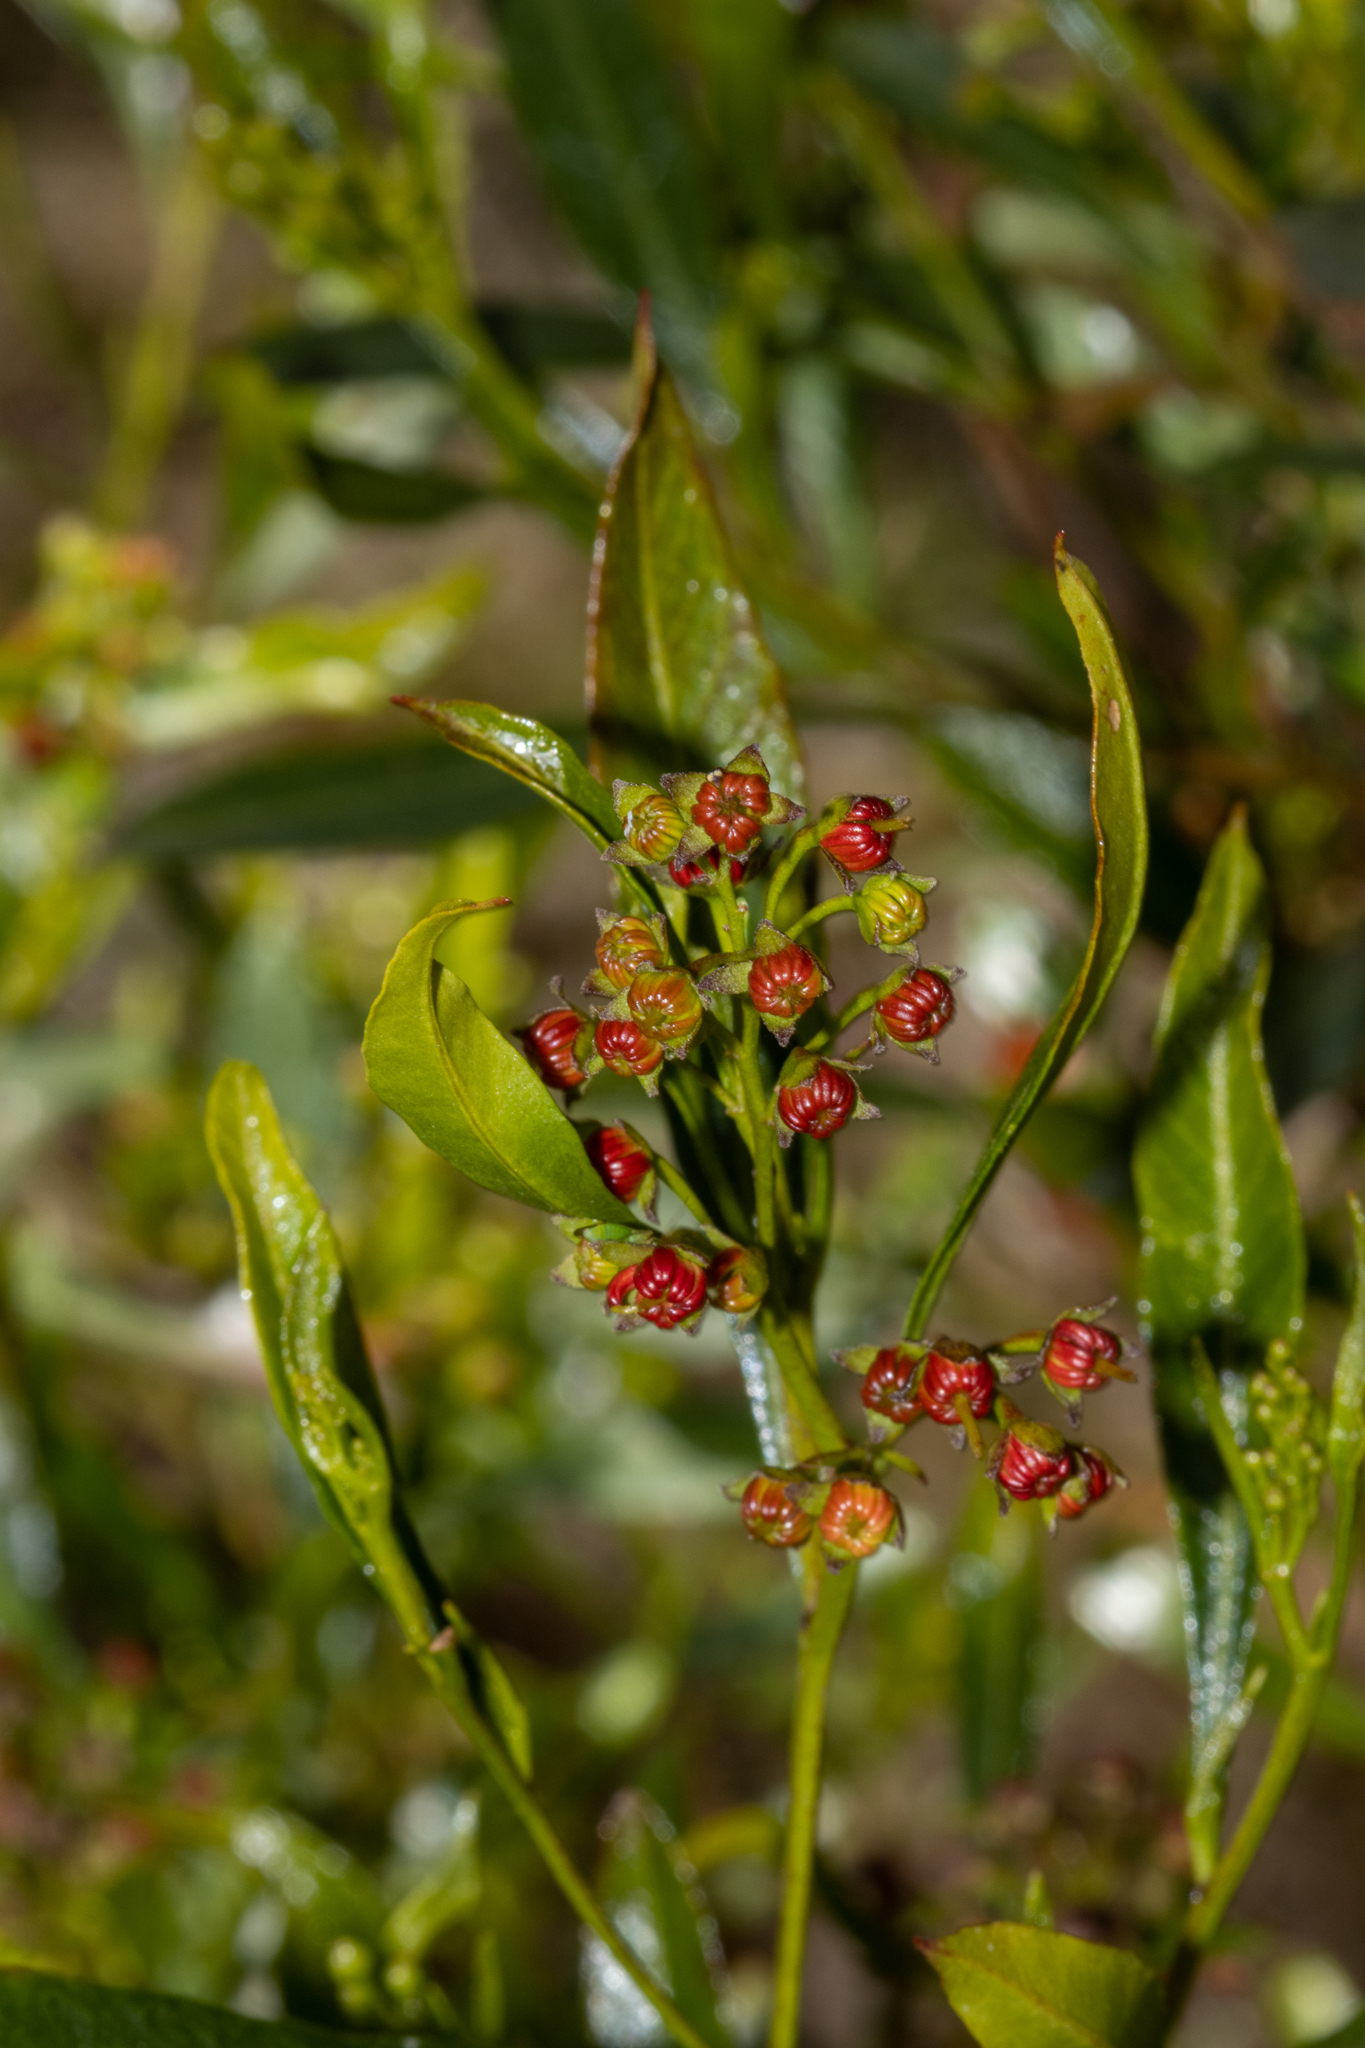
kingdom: Plantae
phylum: Tracheophyta
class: Magnoliopsida
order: Sapindales
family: Sapindaceae
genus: Dodonaea
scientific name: Dodonaea viscosa
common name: Hopbush
